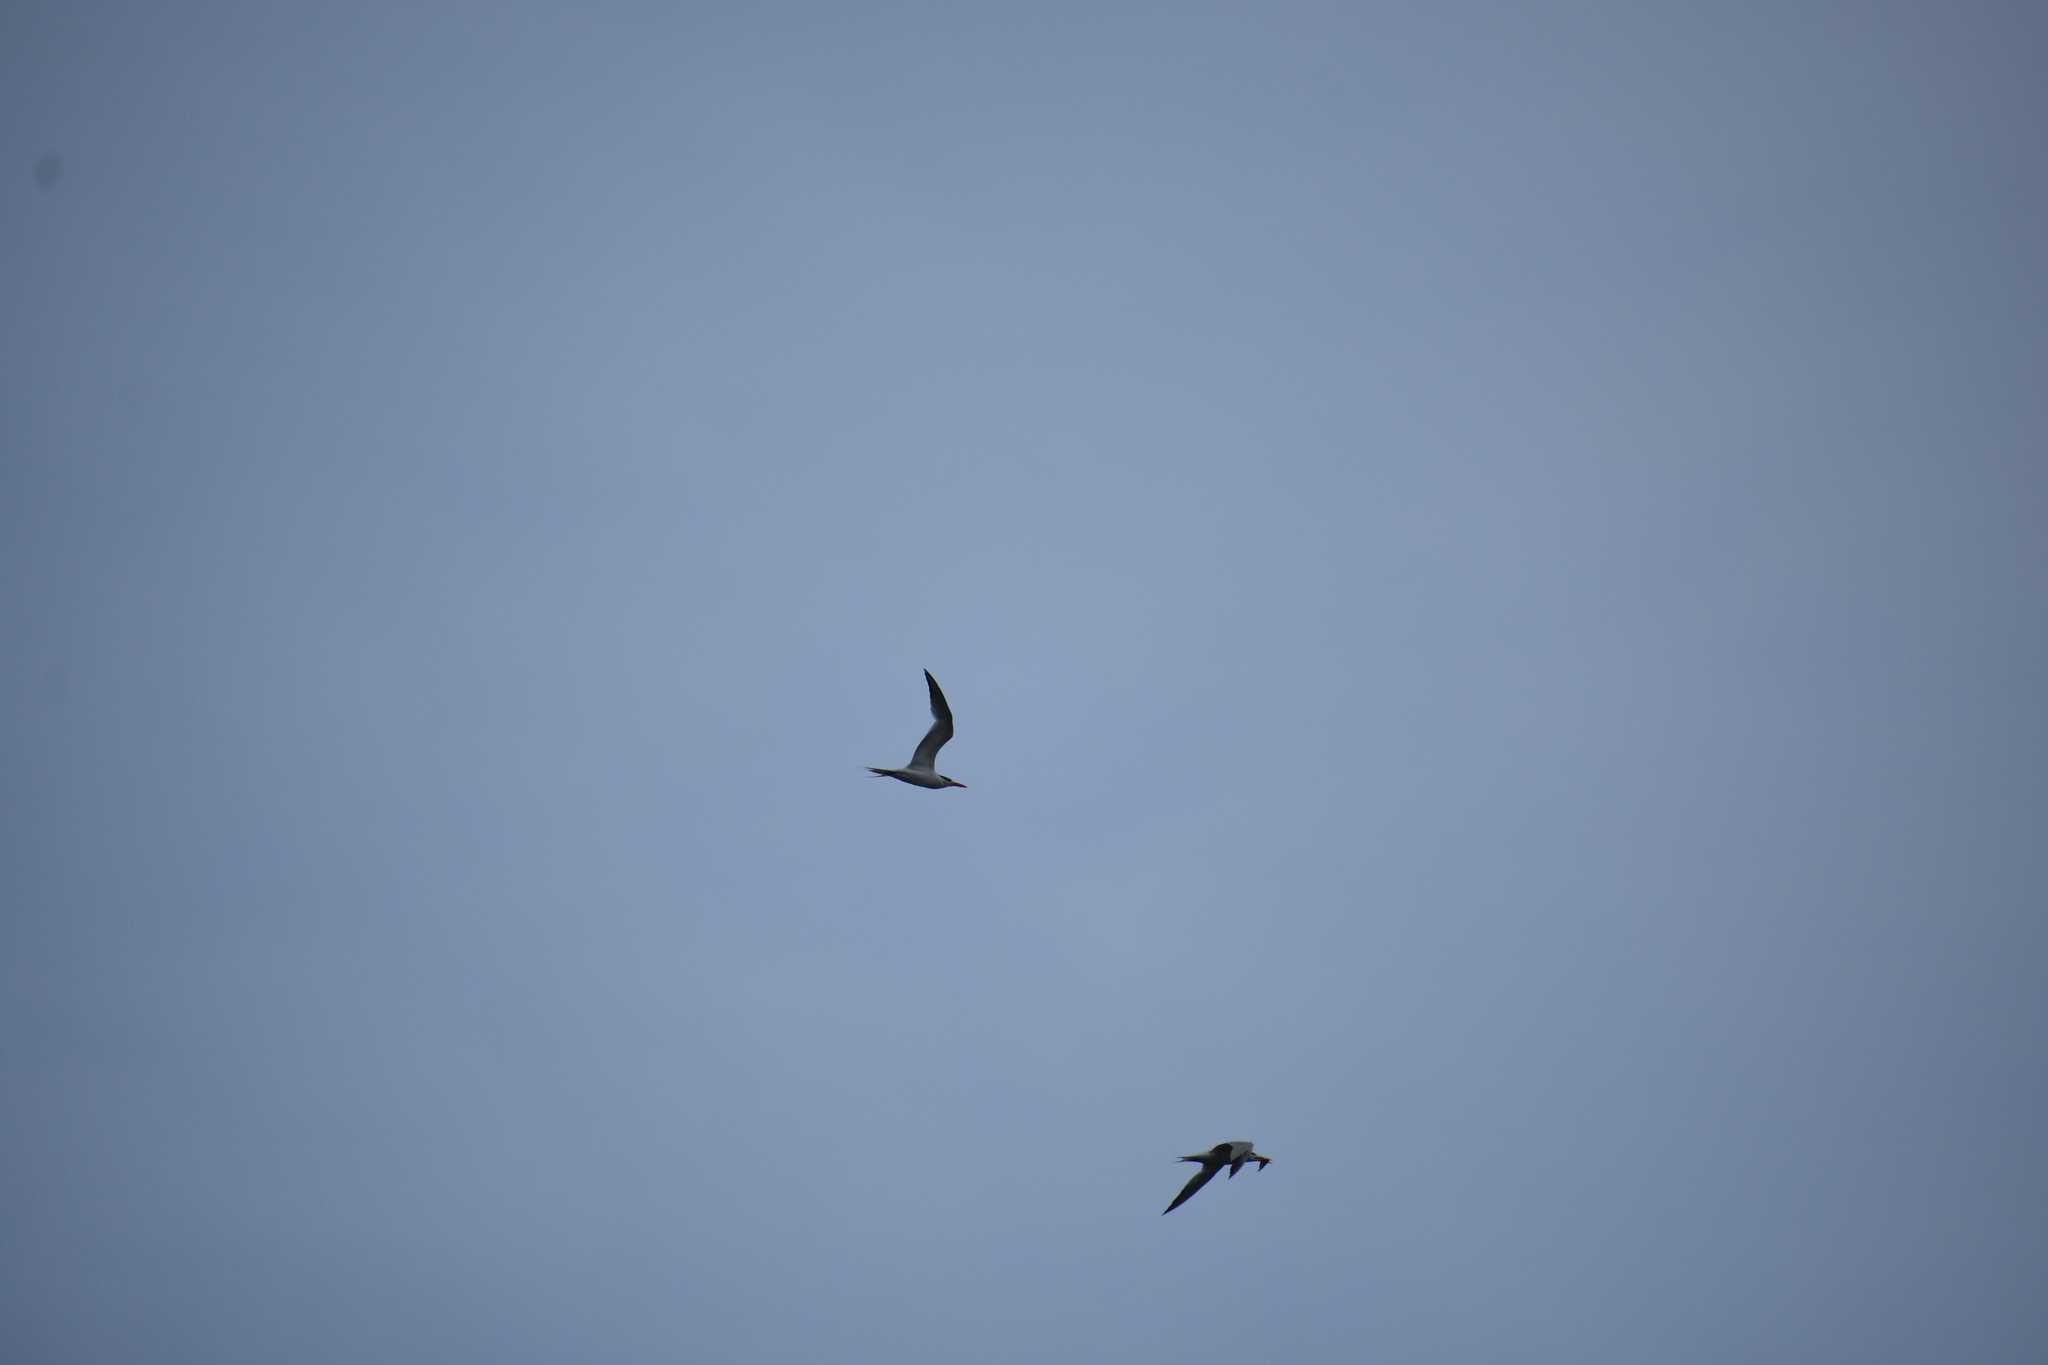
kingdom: Animalia
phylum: Chordata
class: Aves
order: Charadriiformes
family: Laridae
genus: Thalasseus
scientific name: Thalasseus maximus
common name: Royal tern
